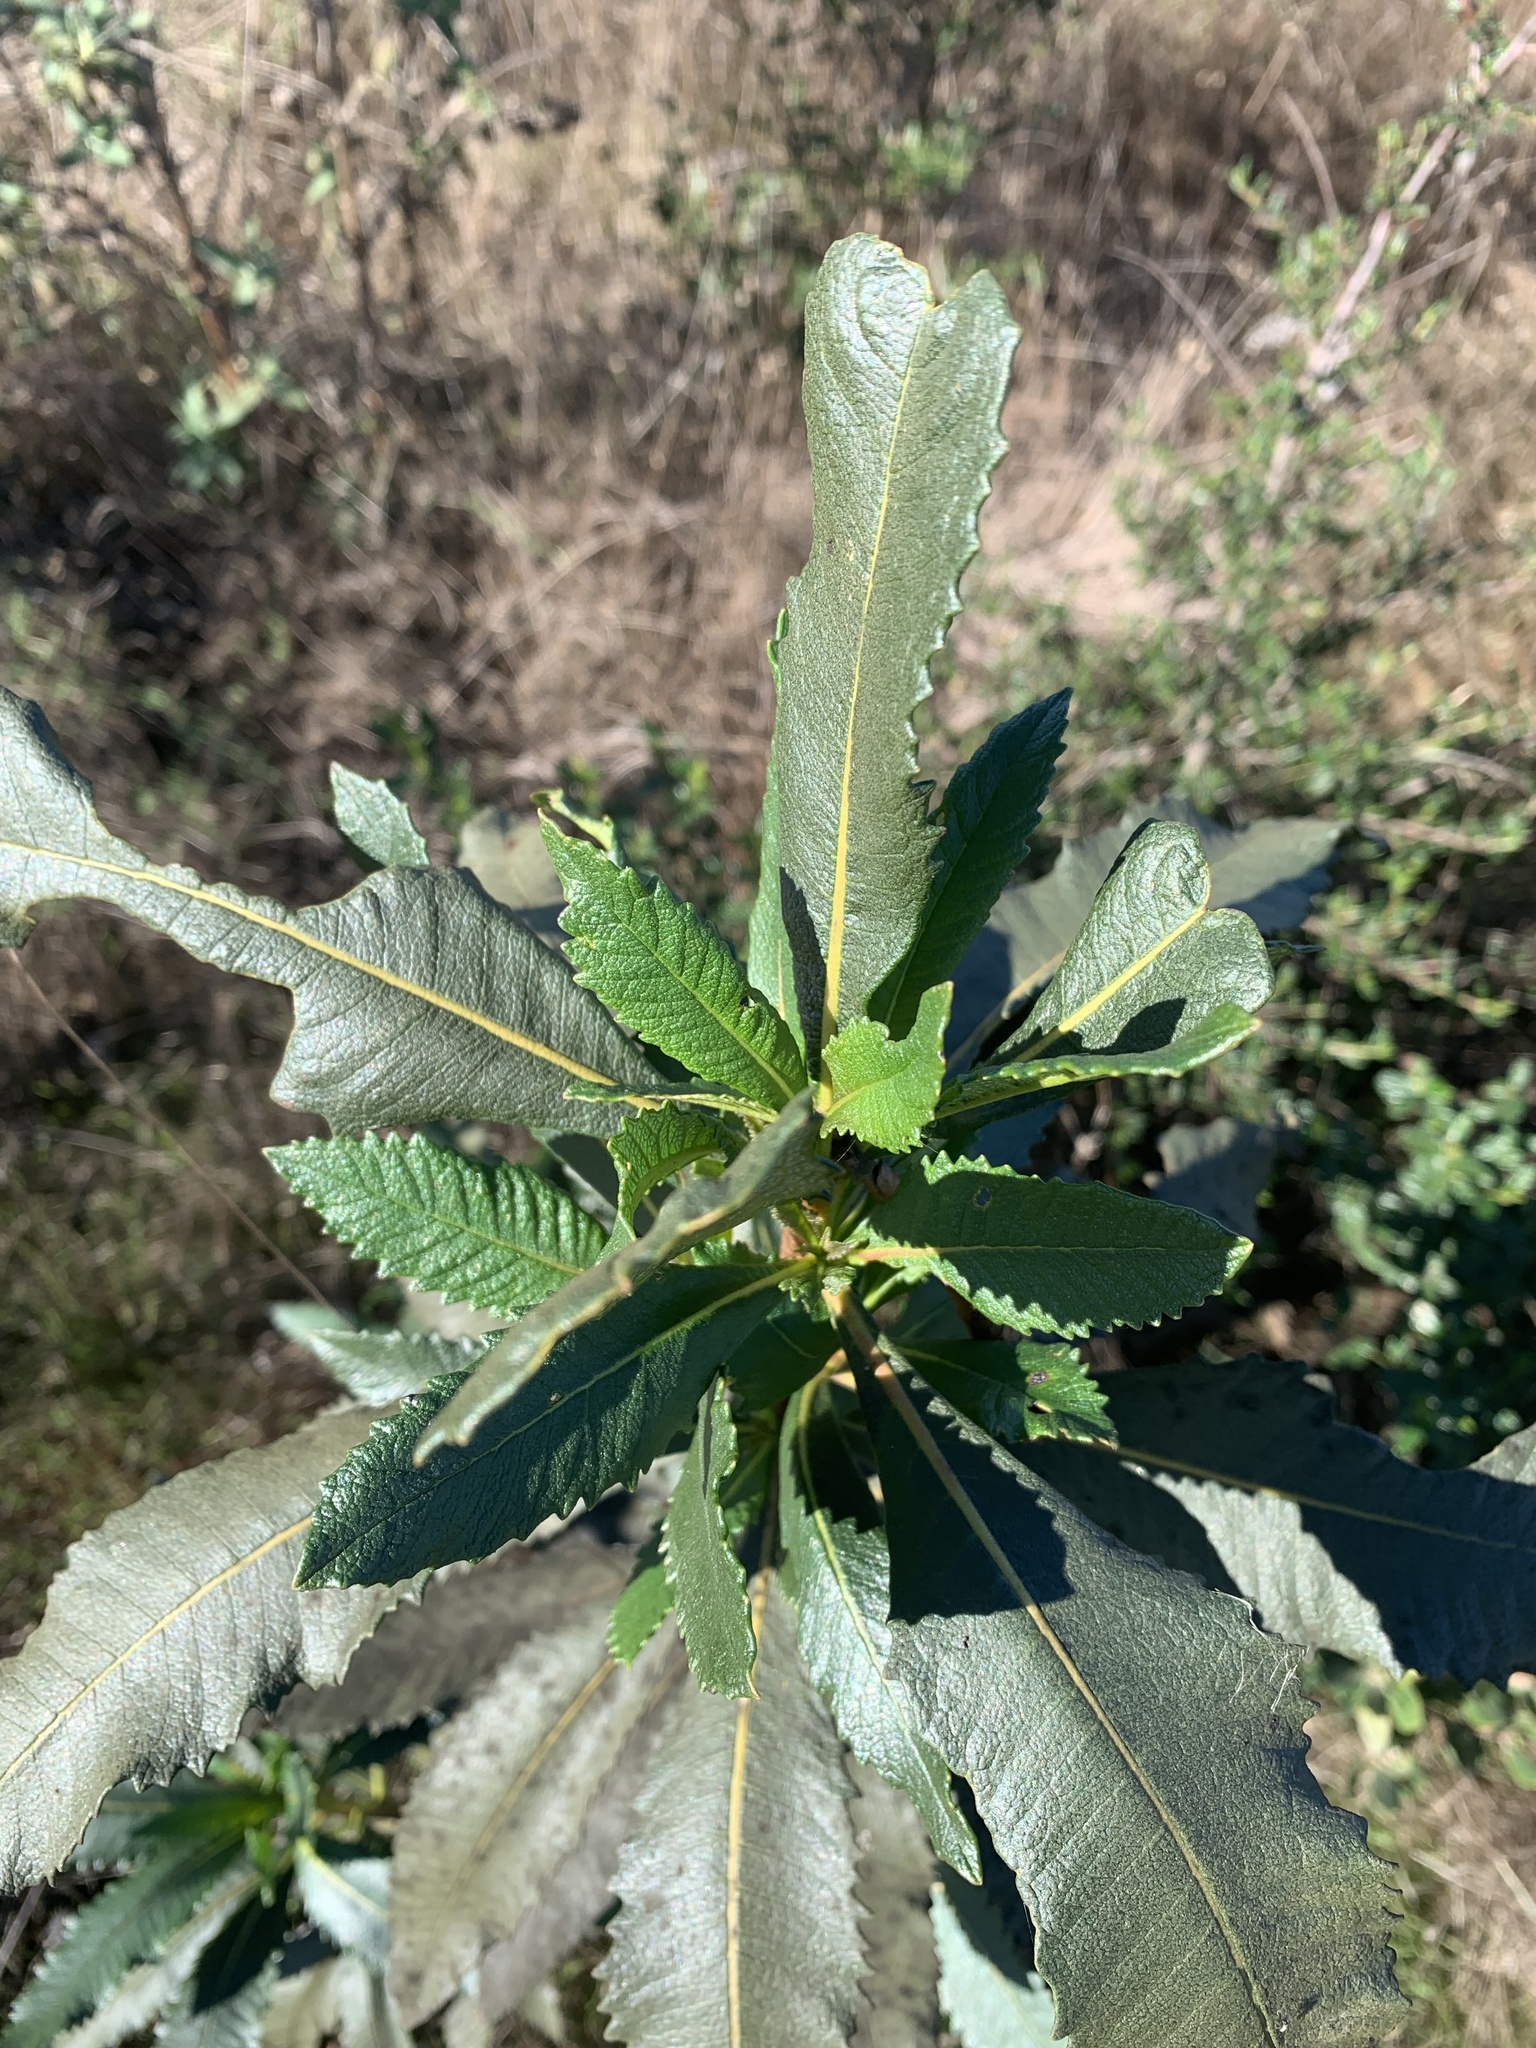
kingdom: Plantae
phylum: Tracheophyta
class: Magnoliopsida
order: Boraginales
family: Namaceae
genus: Eriodictyon
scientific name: Eriodictyon californicum
